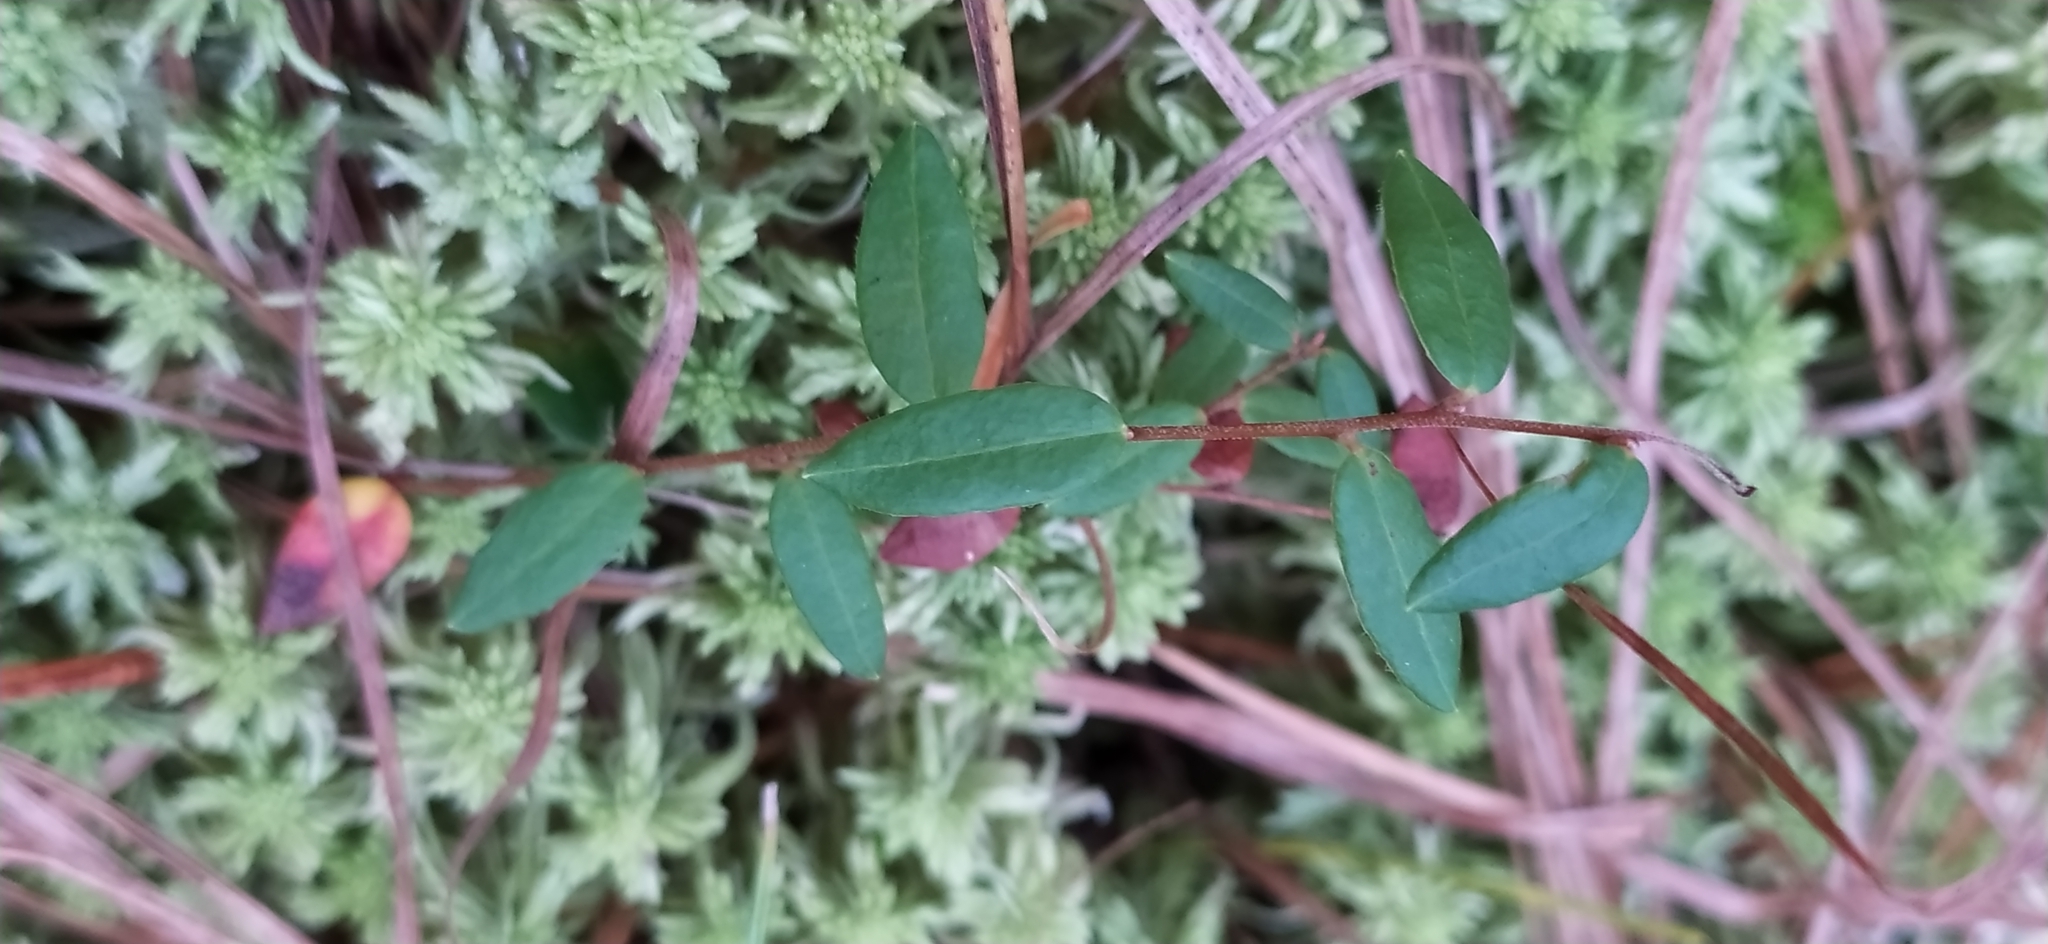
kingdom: Plantae
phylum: Tracheophyta
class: Magnoliopsida
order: Ericales
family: Ericaceae
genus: Vaccinium
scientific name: Vaccinium oxycoccos
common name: Cranberry
